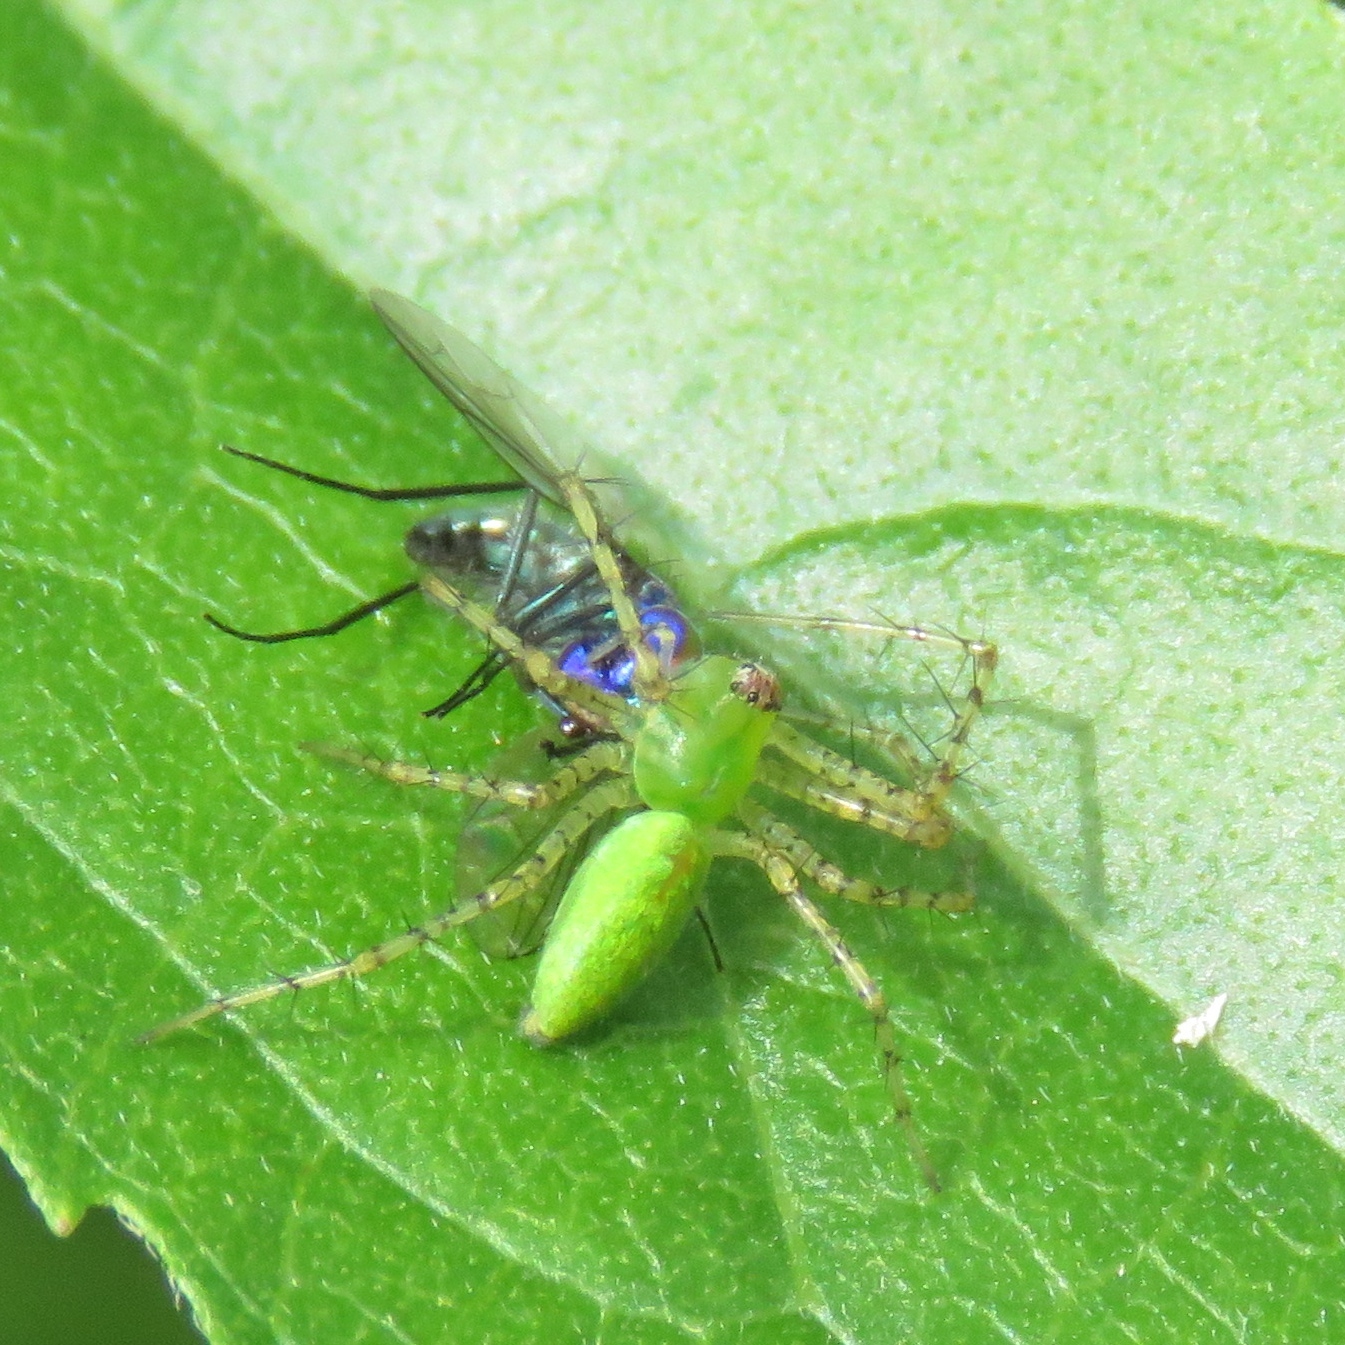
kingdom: Animalia
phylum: Arthropoda
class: Arachnida
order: Araneae
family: Oxyopidae
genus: Peucetia
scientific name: Peucetia viridans
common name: Lynx spiders
